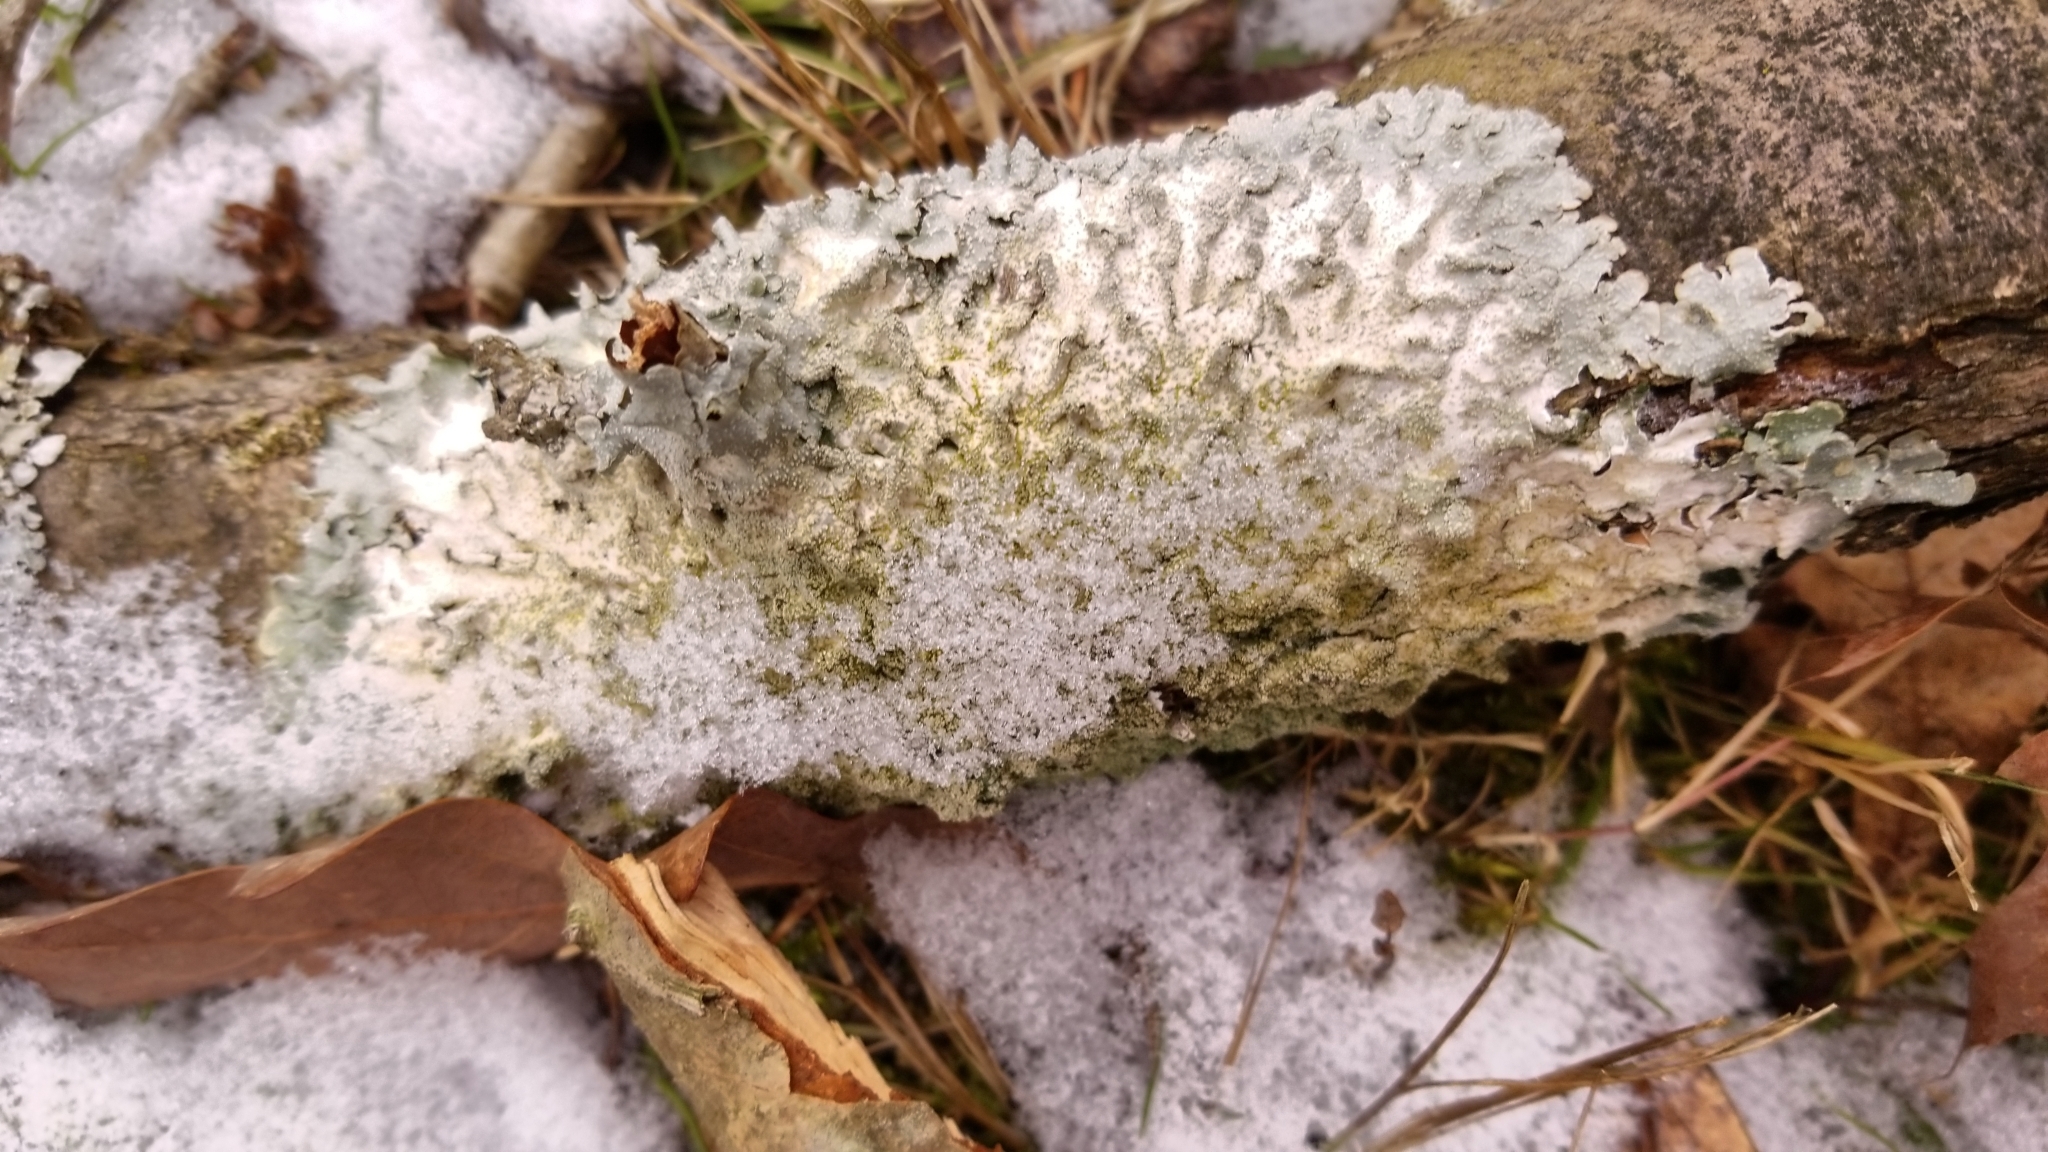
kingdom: Fungi
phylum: Ascomycota
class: Lecanoromycetes
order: Lecanorales
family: Parmeliaceae
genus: Punctelia
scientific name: Punctelia rudecta
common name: Rough speckled shield lichen
